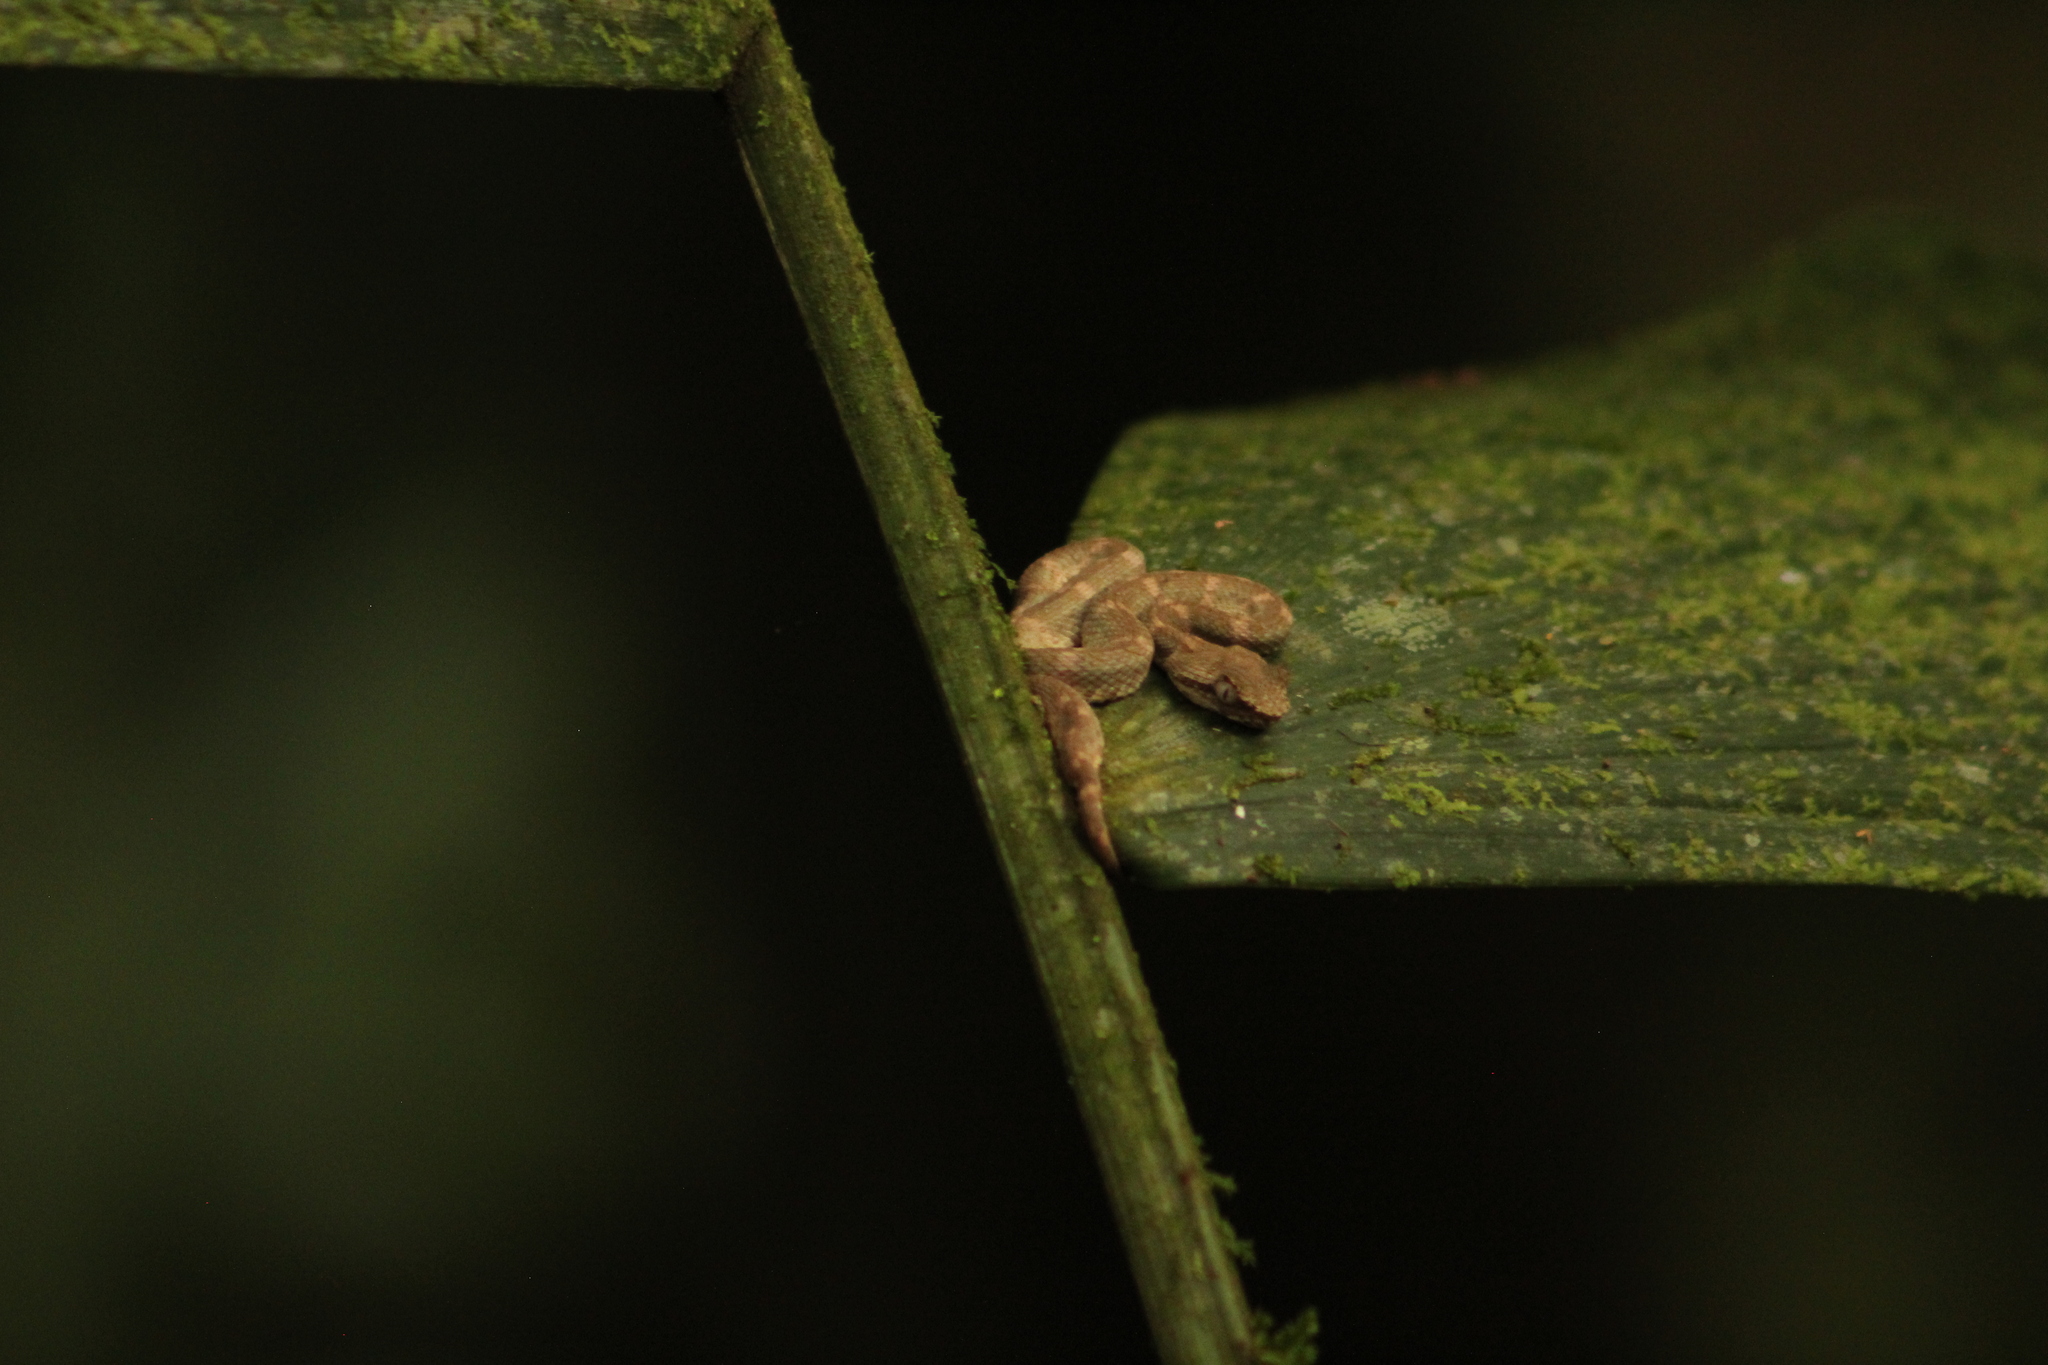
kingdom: Animalia
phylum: Chordata
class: Squamata
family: Viperidae
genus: Bothriechis
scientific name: Bothriechis schlegelii
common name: Eyelash viper
